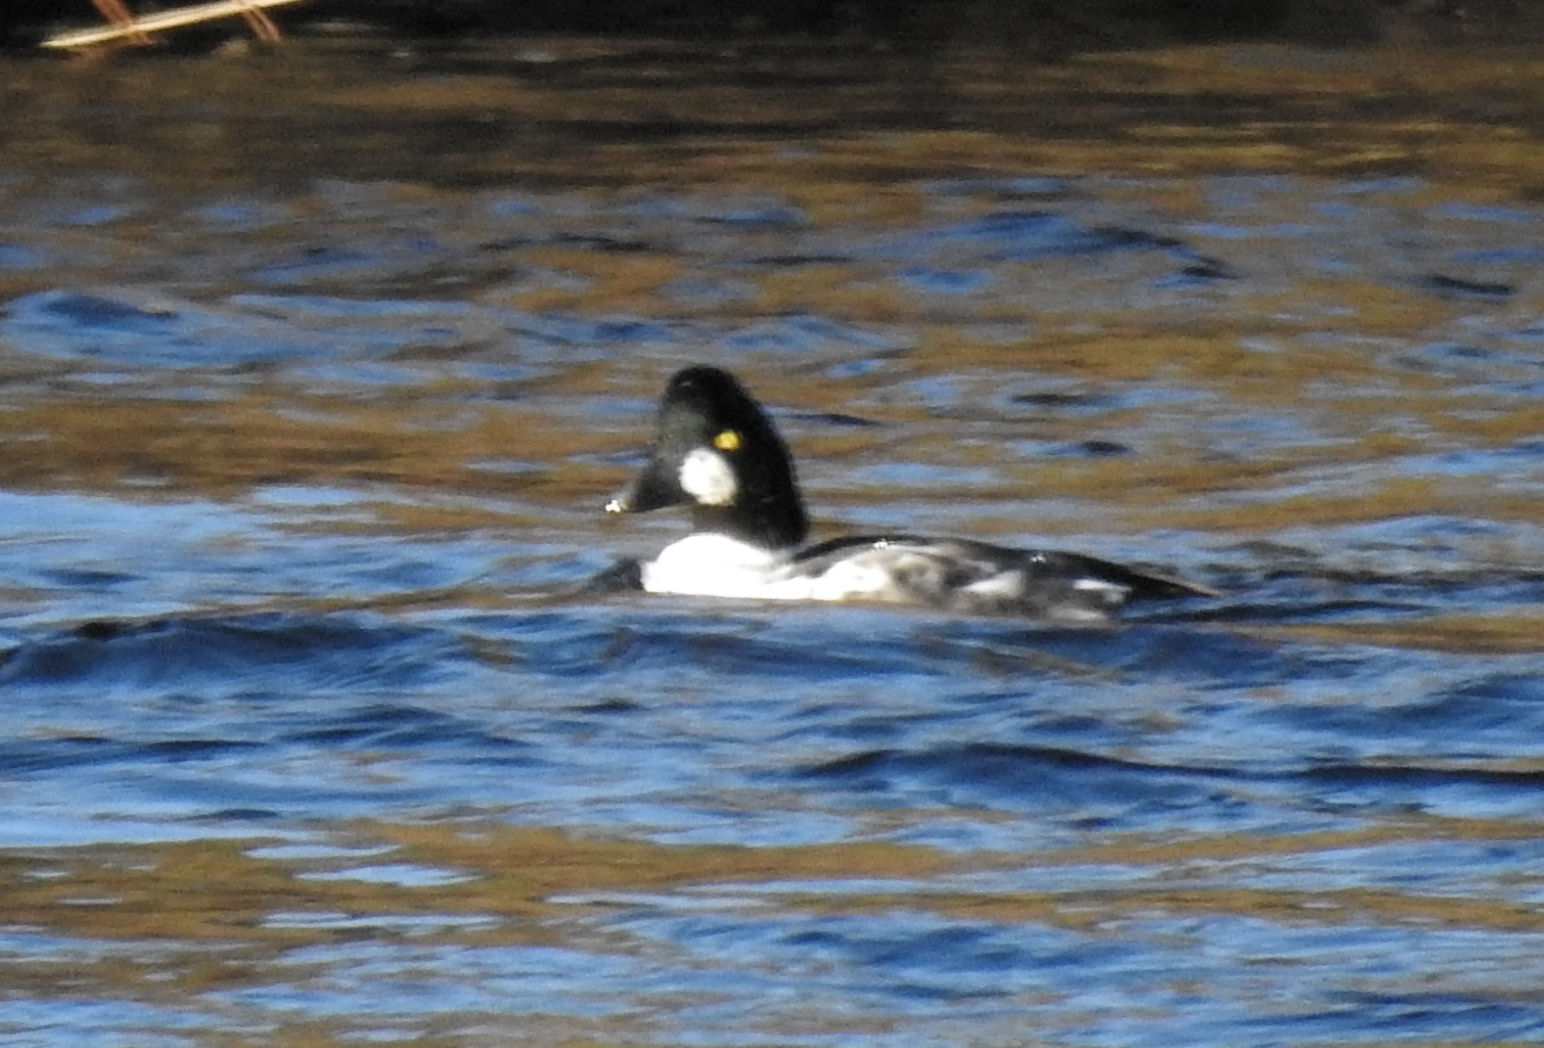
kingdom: Animalia
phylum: Chordata
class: Aves
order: Anseriformes
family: Anatidae
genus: Bucephala
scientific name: Bucephala clangula
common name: Common goldeneye
